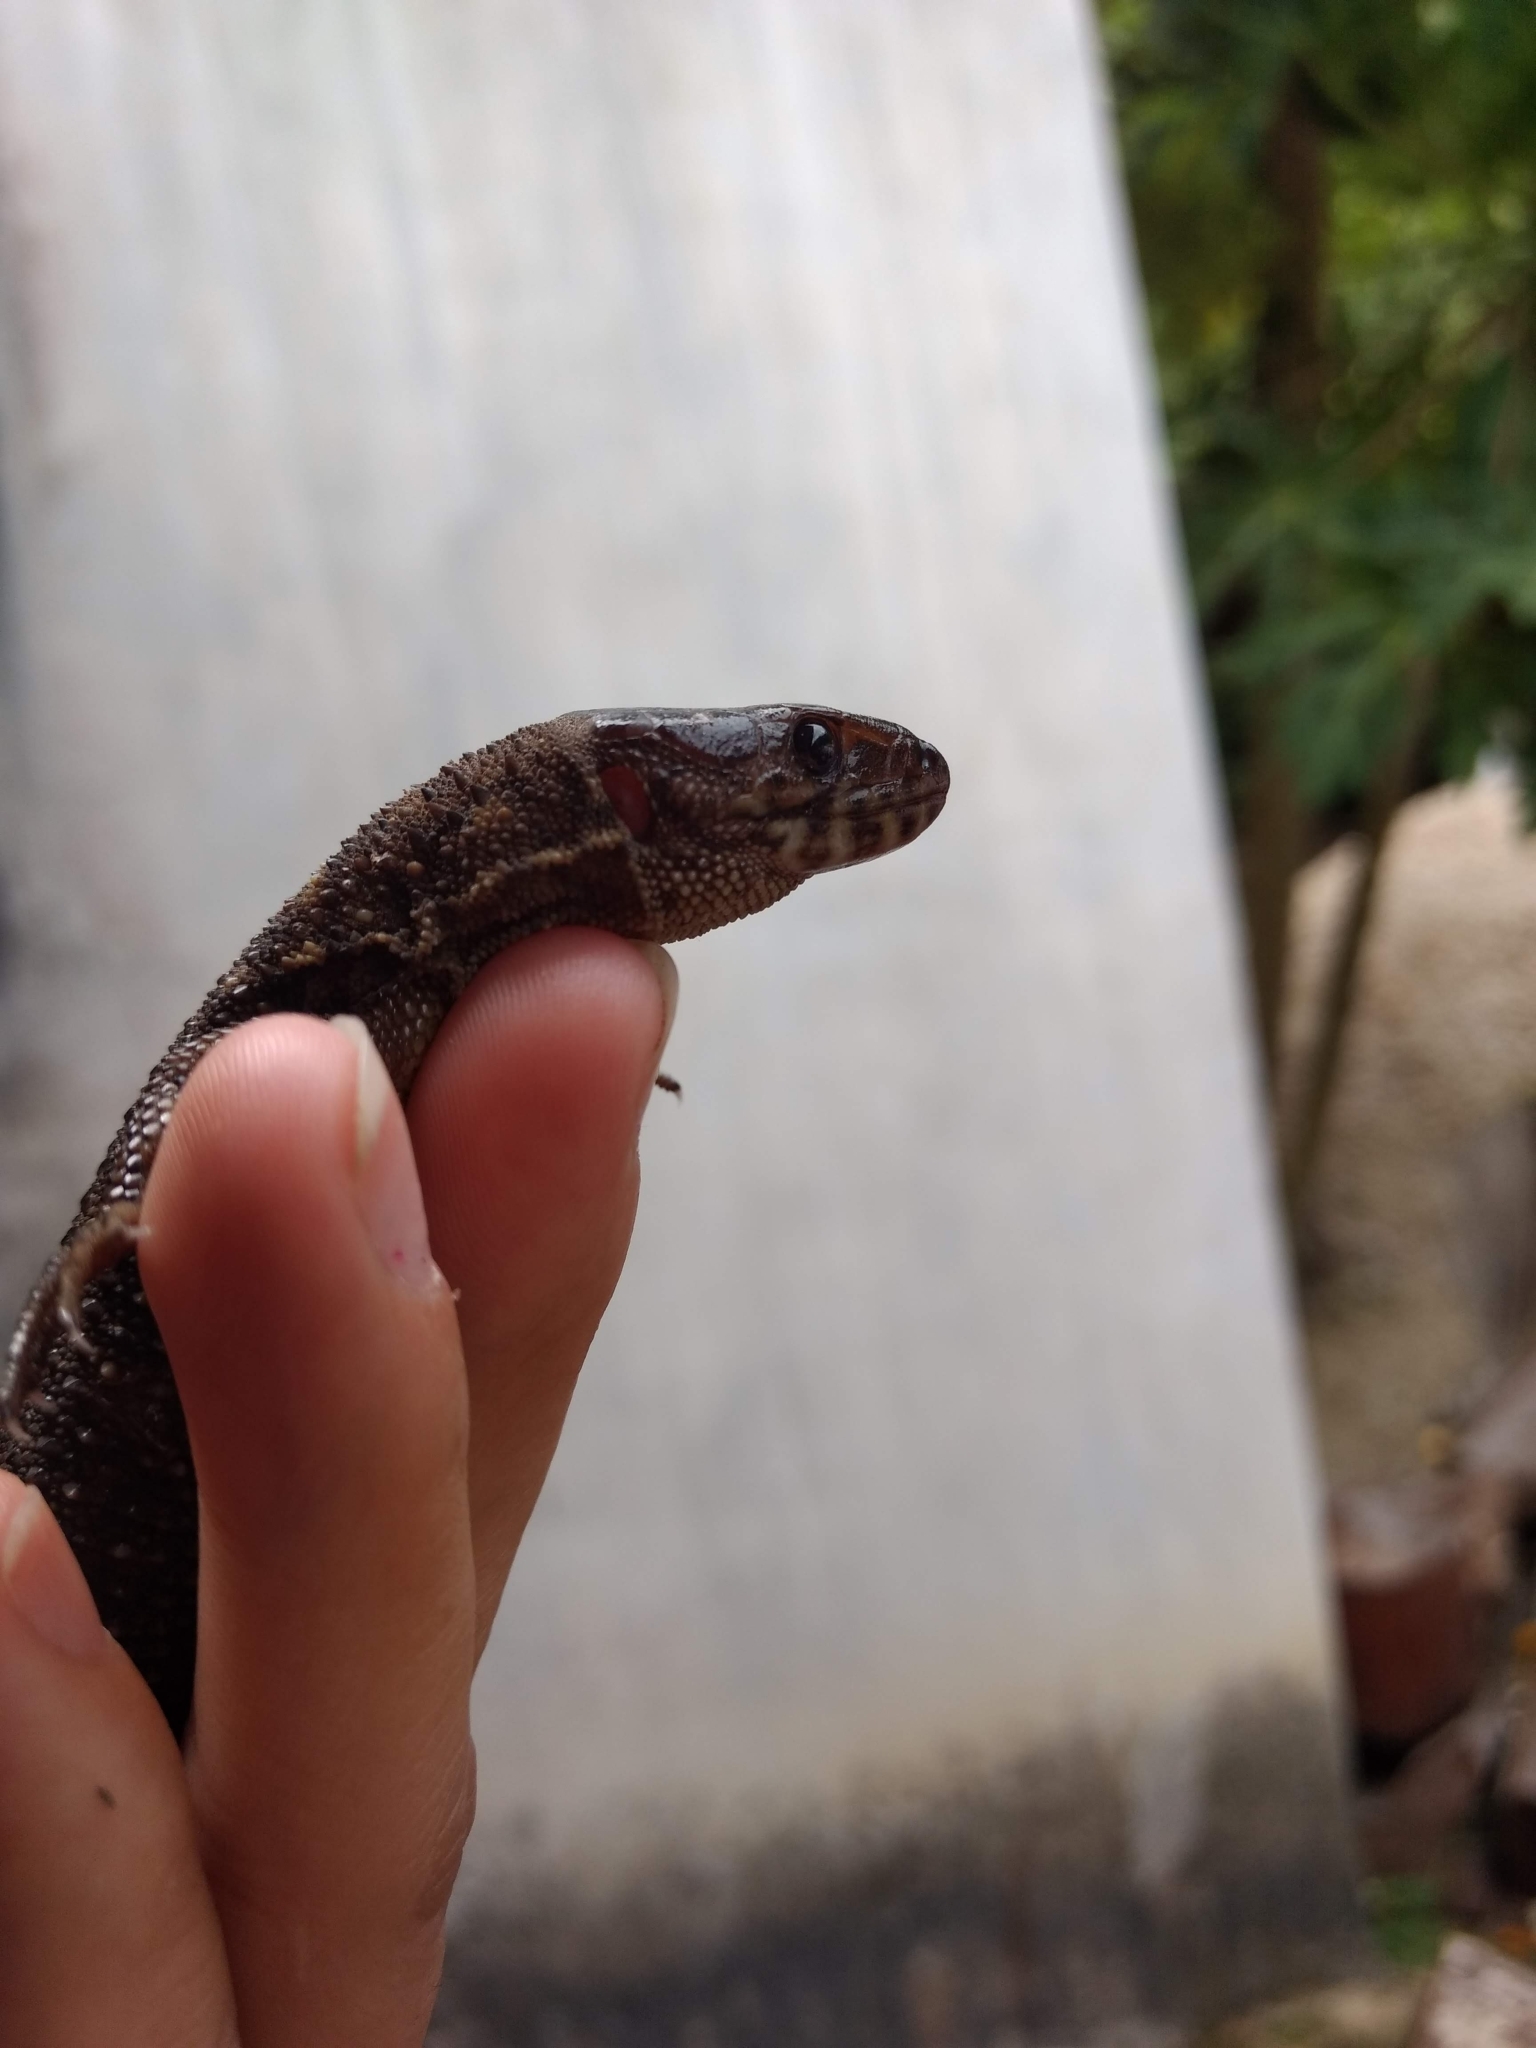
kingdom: Animalia
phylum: Chordata
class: Squamata
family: Xantusiidae
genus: Lepidophyma
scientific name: Lepidophyma flavimaculatum
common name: Yellow-spotted night lizard
